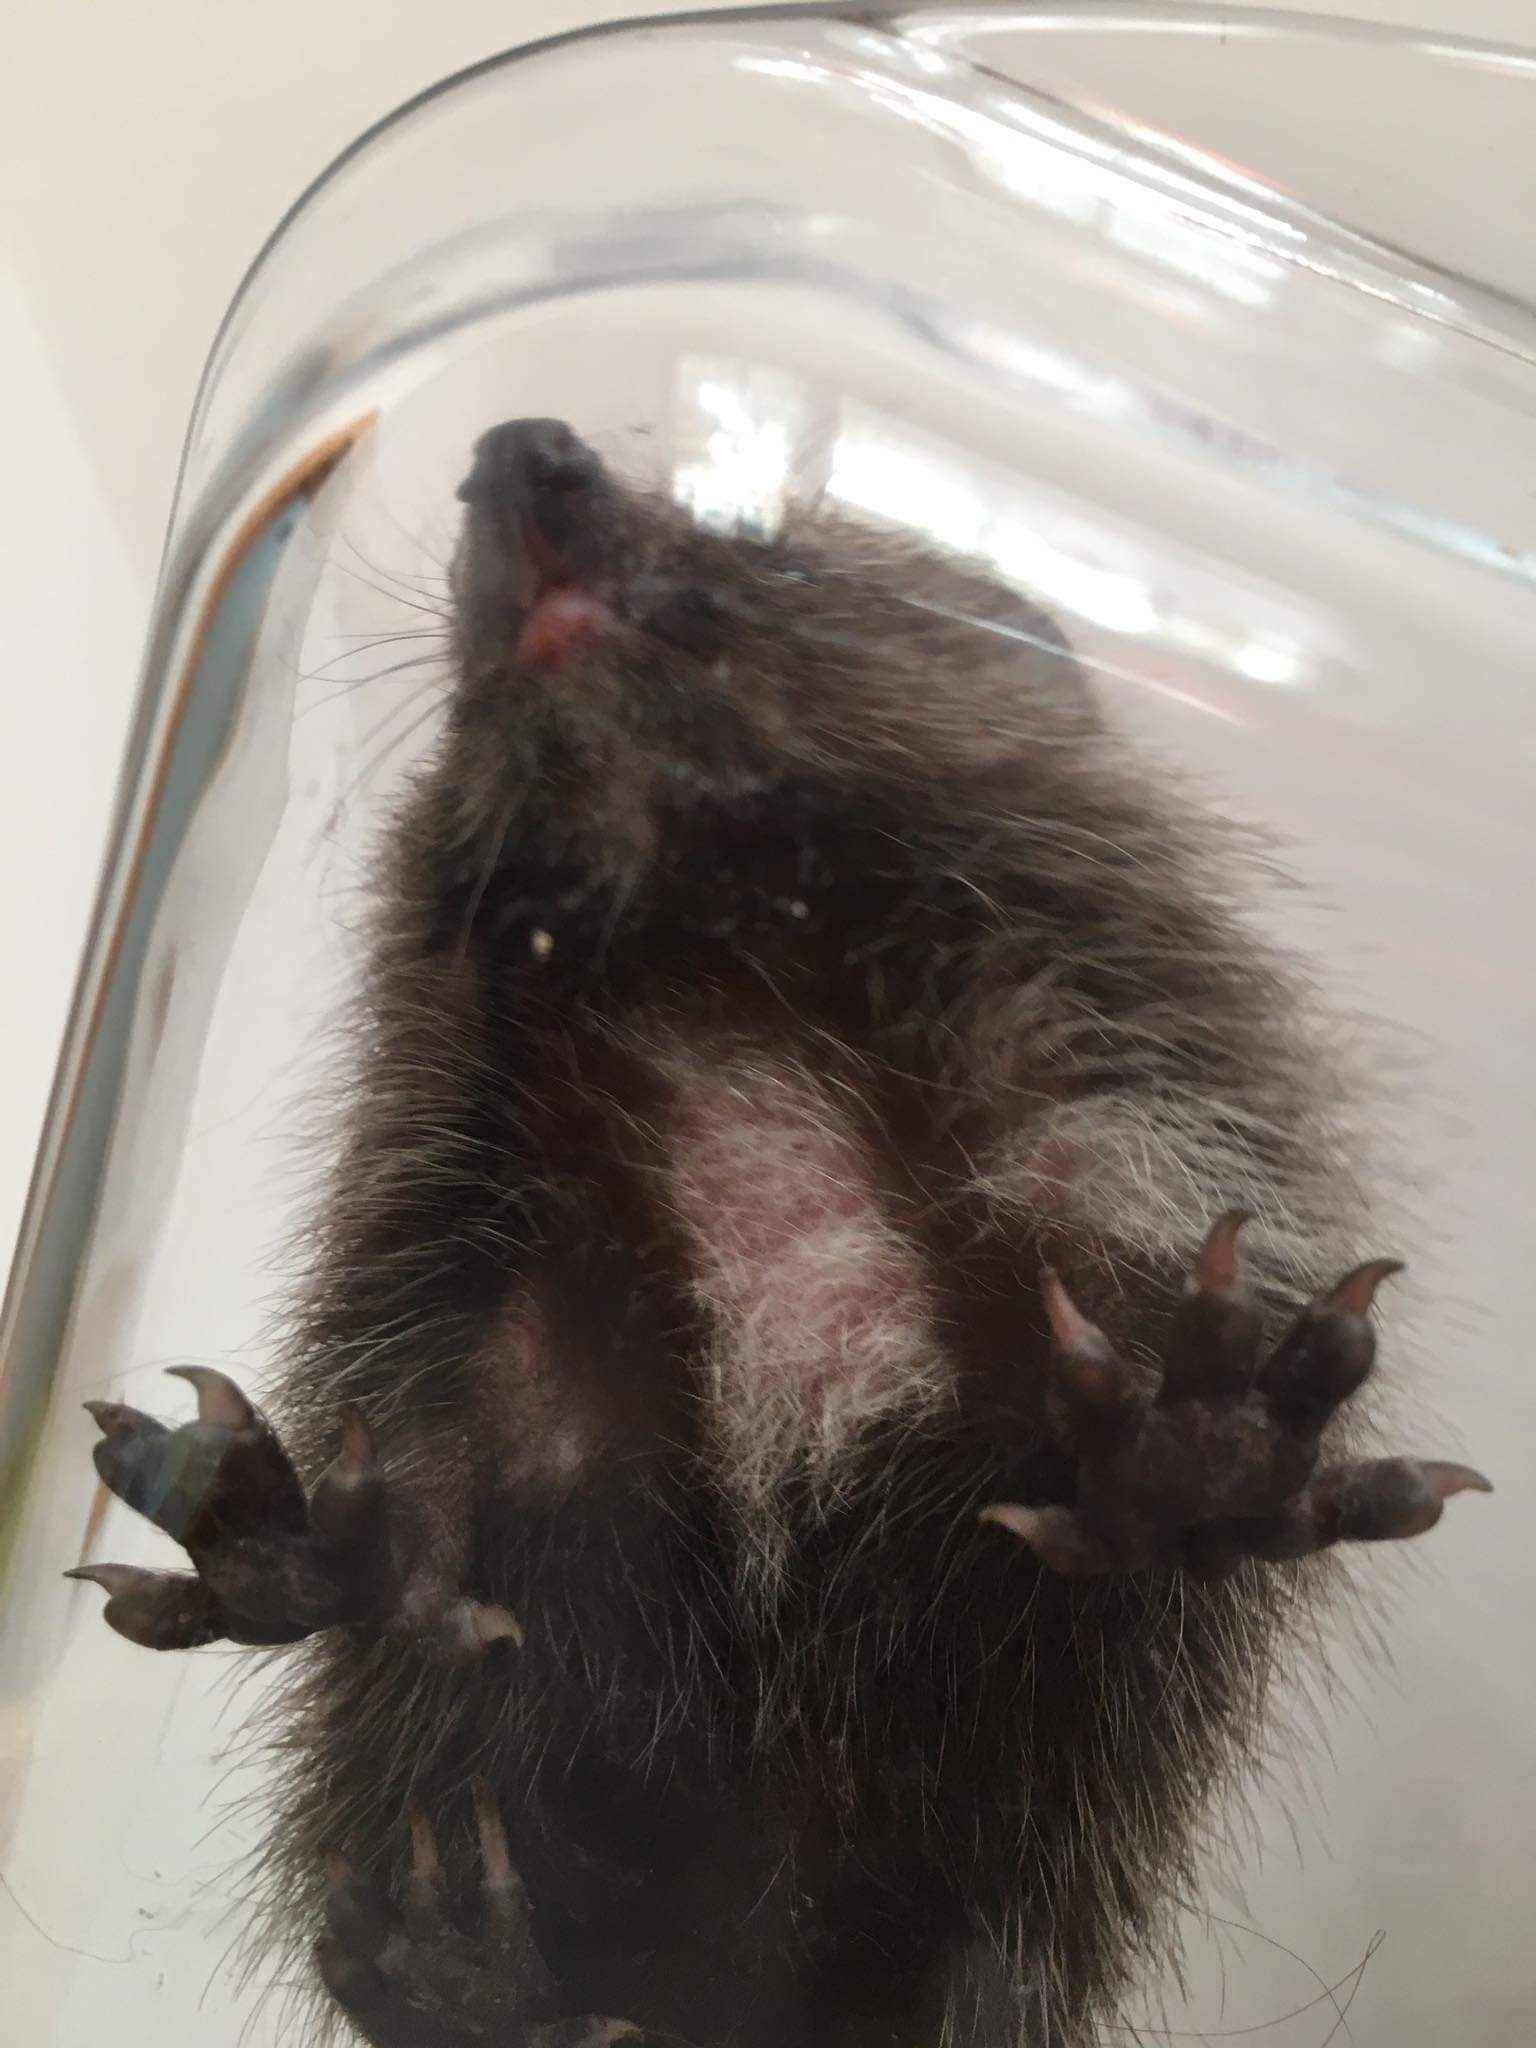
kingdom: Animalia
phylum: Chordata
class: Mammalia
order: Erinaceomorpha
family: Erinaceidae
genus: Erinaceus
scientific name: Erinaceus roumanicus
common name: Northern white-breasted hedgehog
